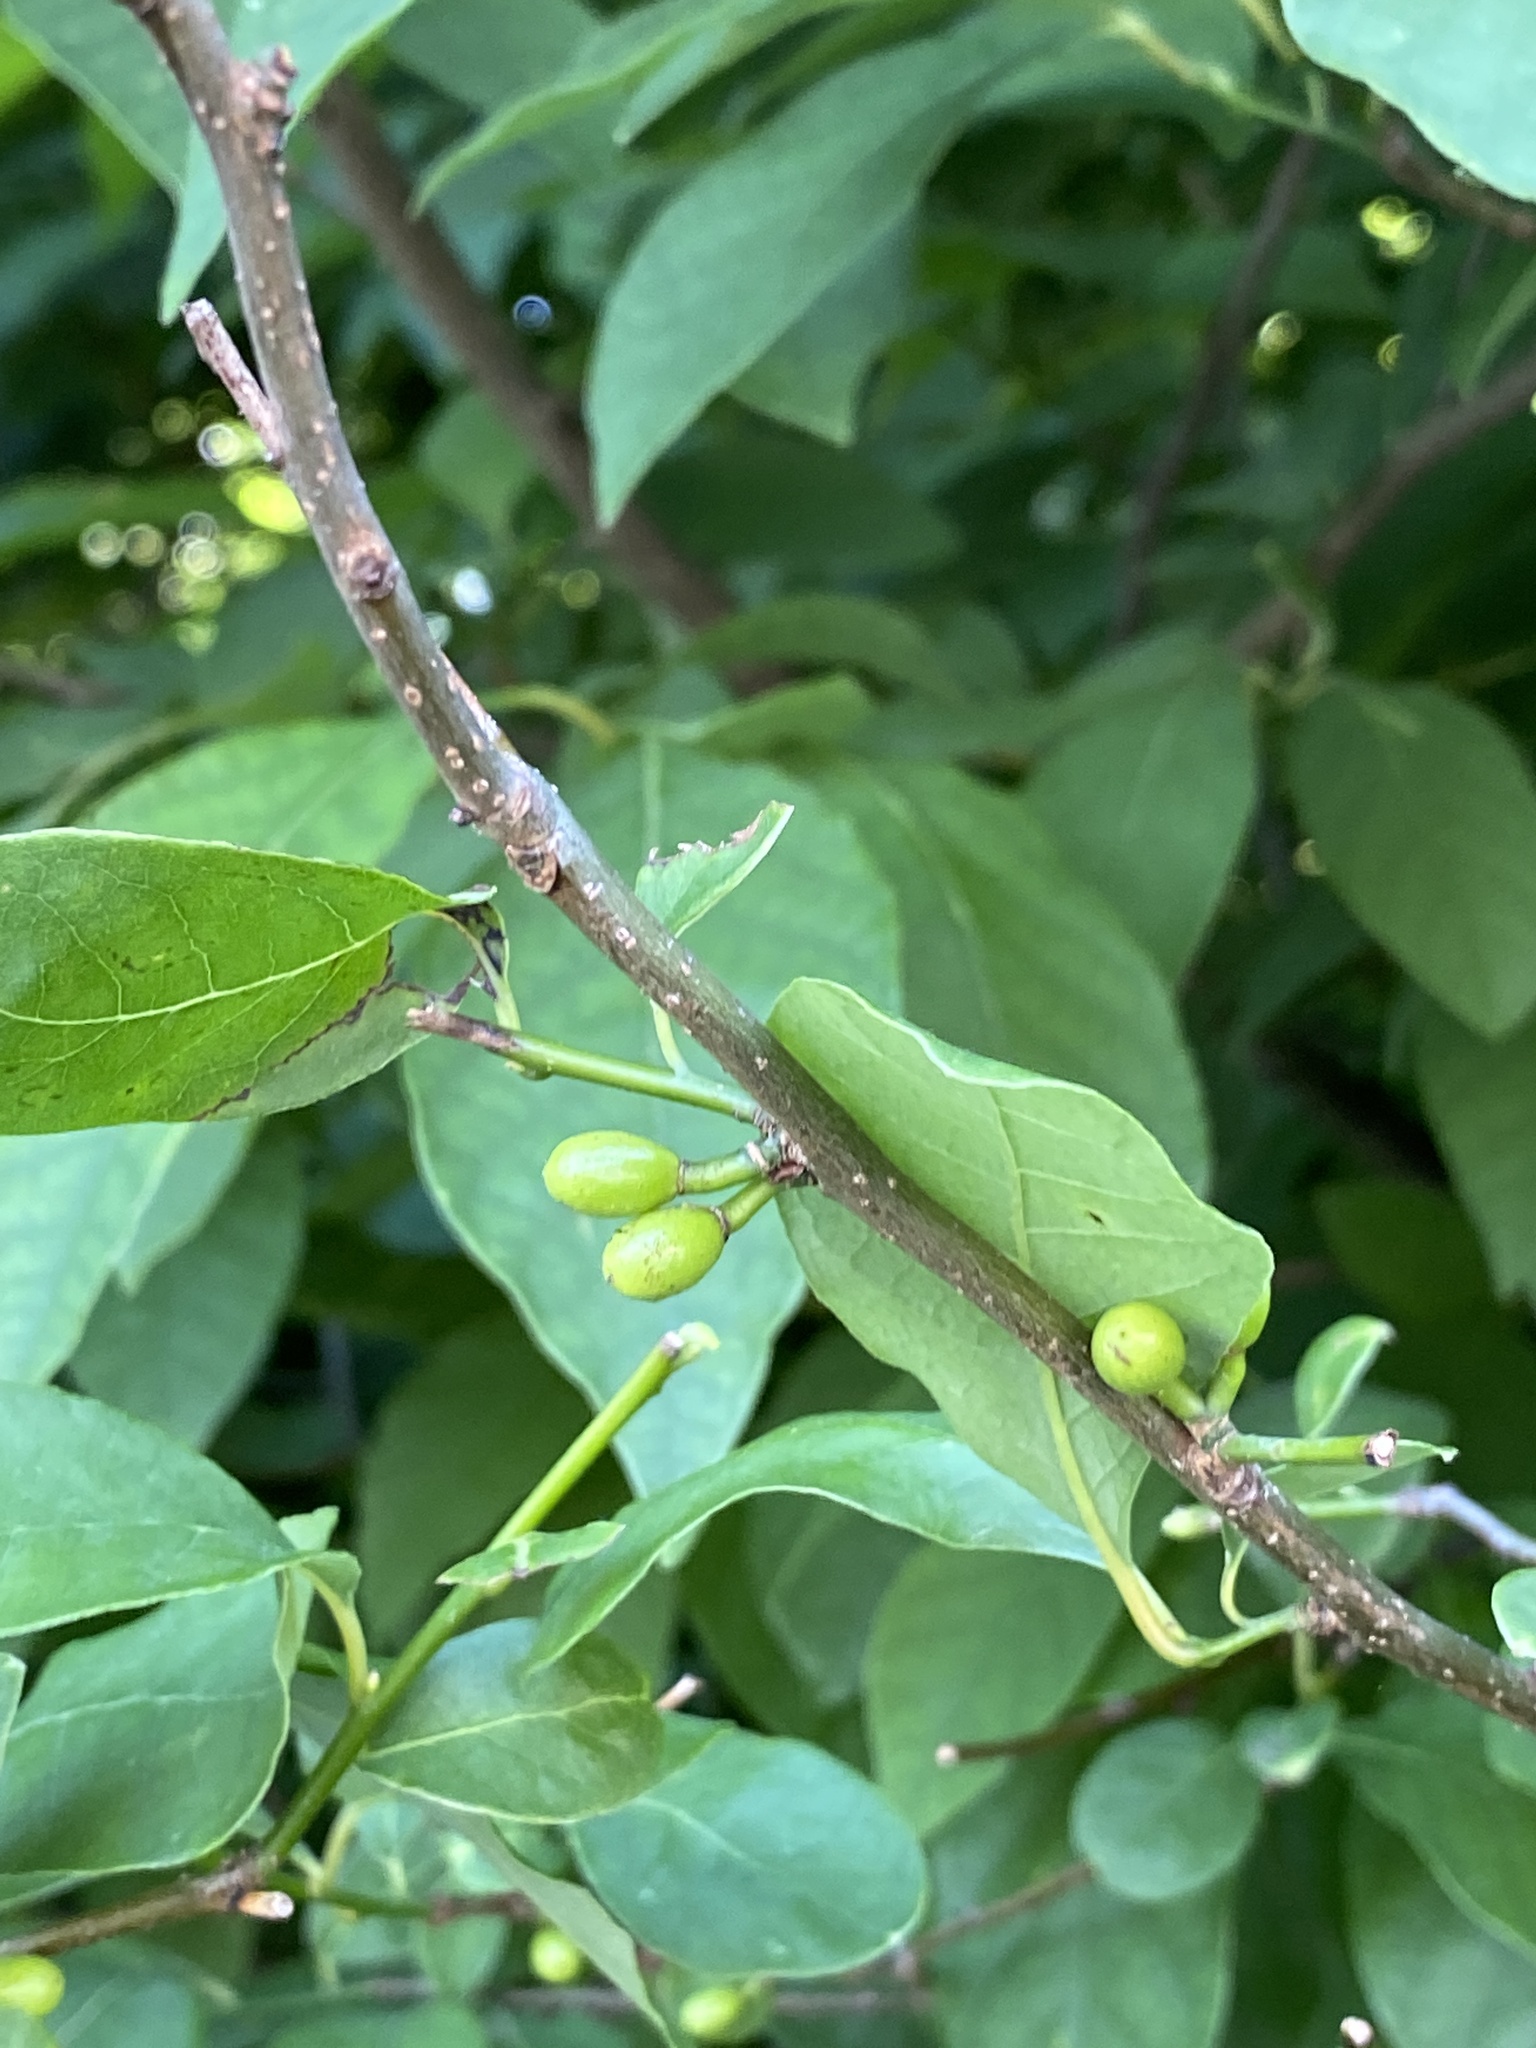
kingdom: Plantae
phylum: Tracheophyta
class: Magnoliopsida
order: Laurales
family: Lauraceae
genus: Lindera
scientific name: Lindera benzoin
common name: Spicebush
